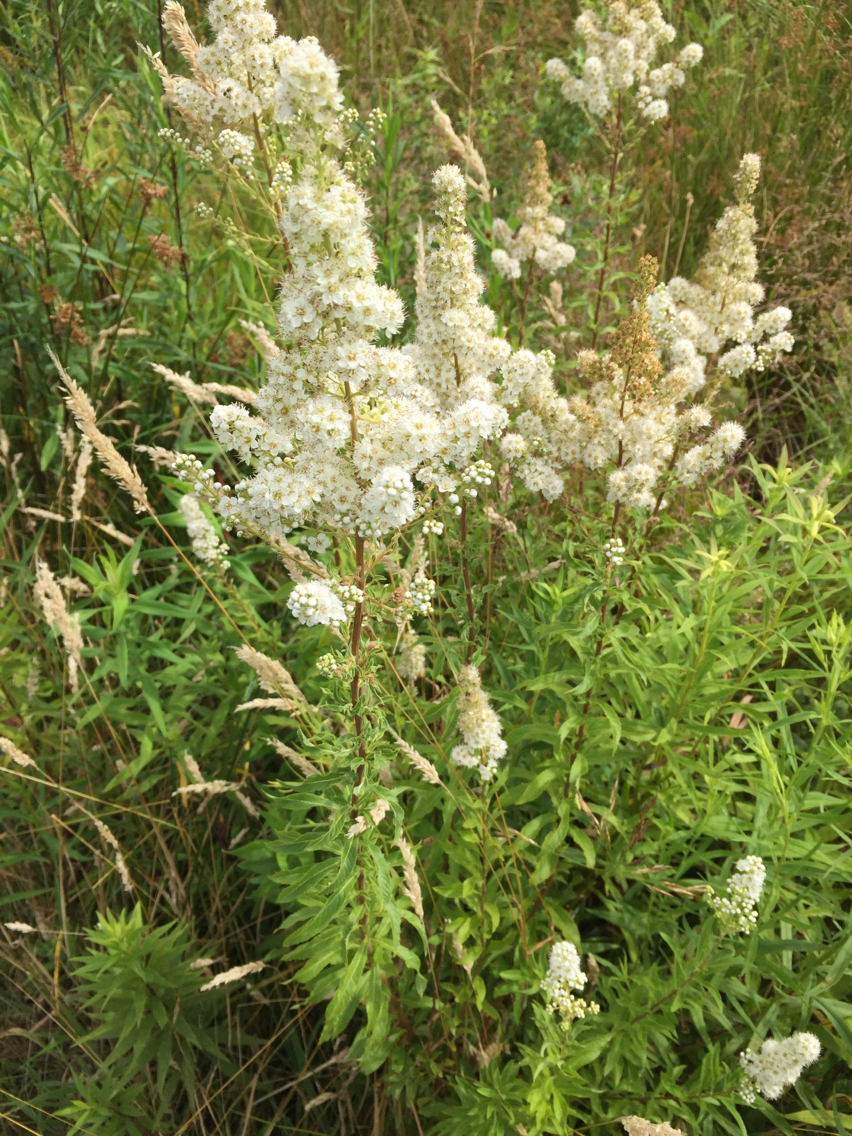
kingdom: Plantae
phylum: Tracheophyta
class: Magnoliopsida
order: Rosales
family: Rosaceae
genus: Spiraea
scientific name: Spiraea alba
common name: Pale bridewort
